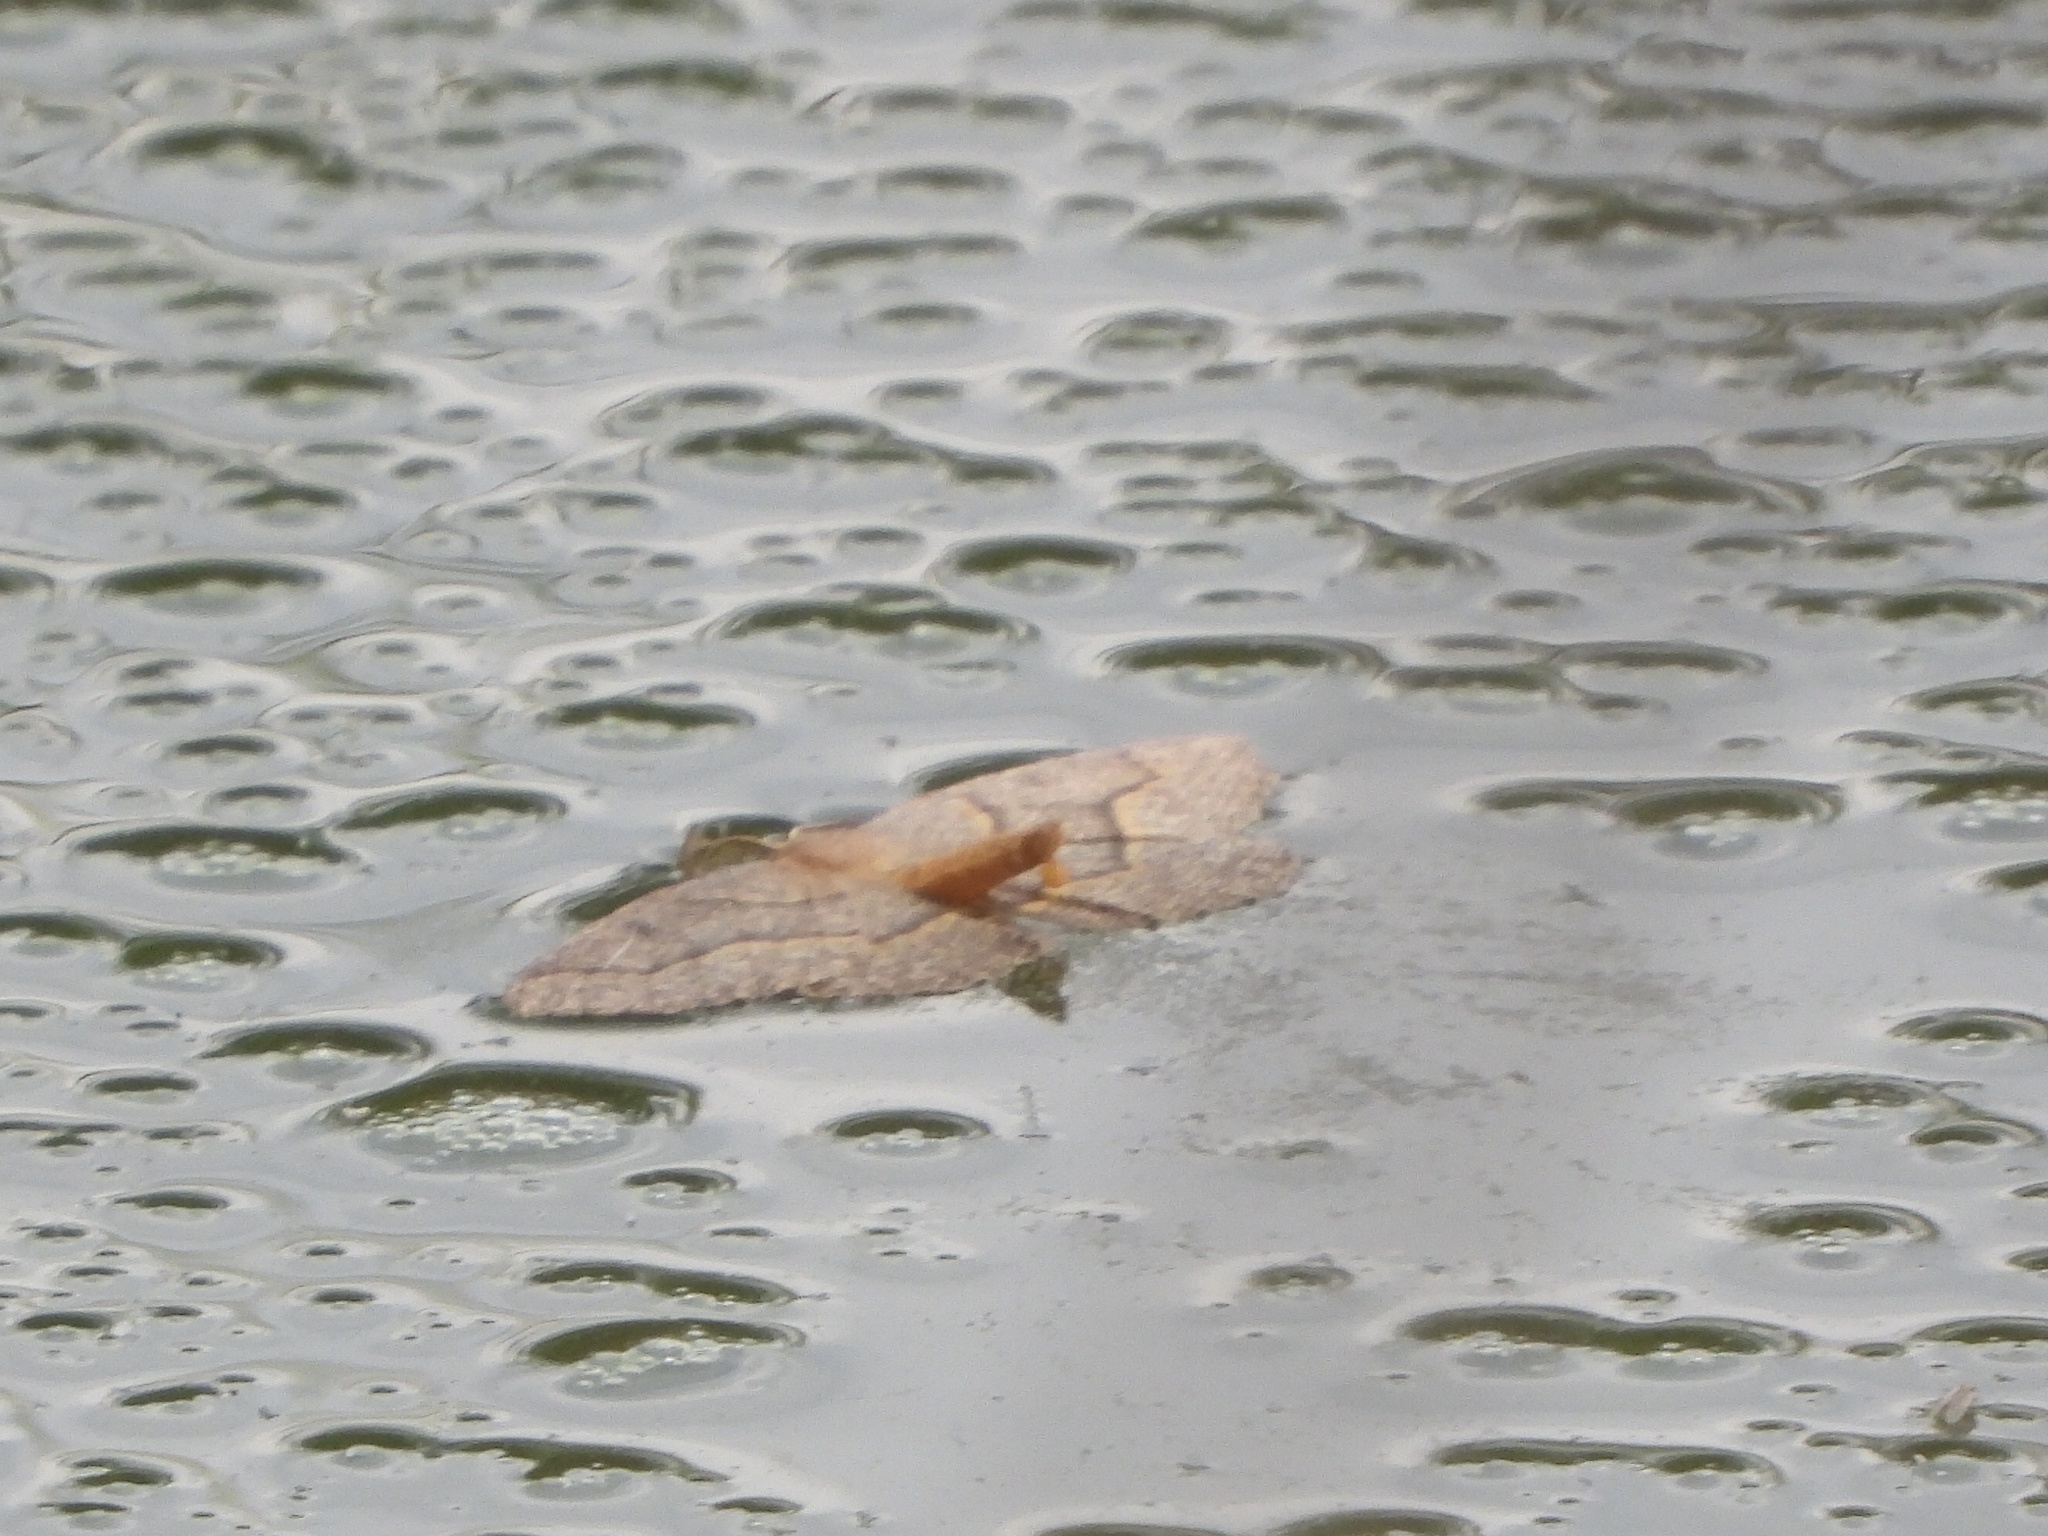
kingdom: Animalia
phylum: Arthropoda
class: Insecta
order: Lepidoptera
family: Geometridae
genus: Lambdina
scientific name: Lambdina fiscellaria
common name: Hemlock looper
